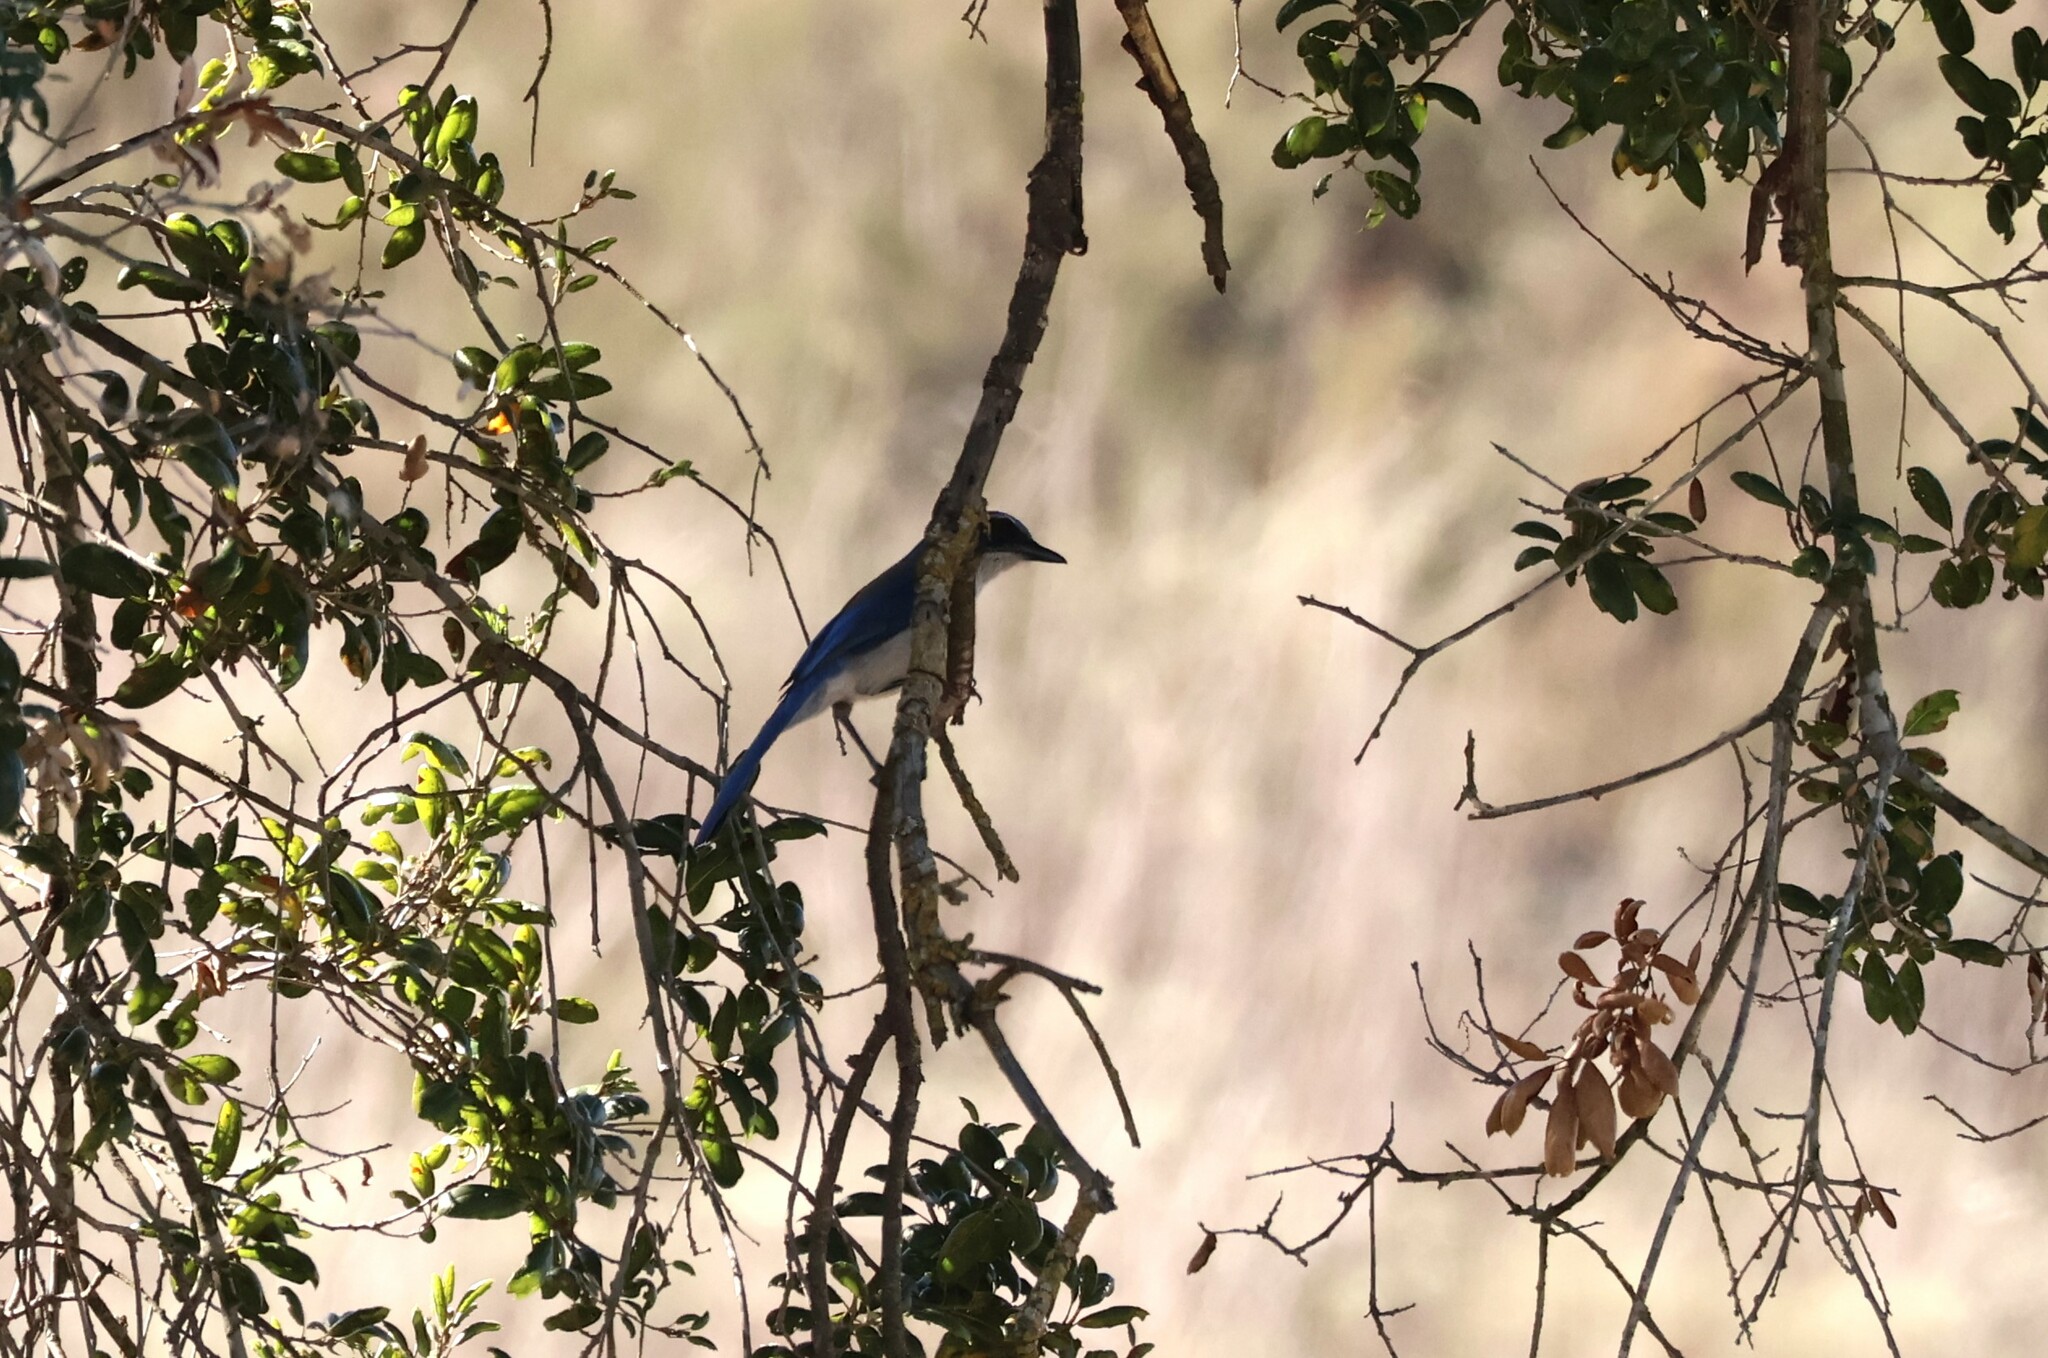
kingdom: Animalia
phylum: Chordata
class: Aves
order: Passeriformes
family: Corvidae
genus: Aphelocoma
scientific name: Aphelocoma californica
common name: California scrub-jay
